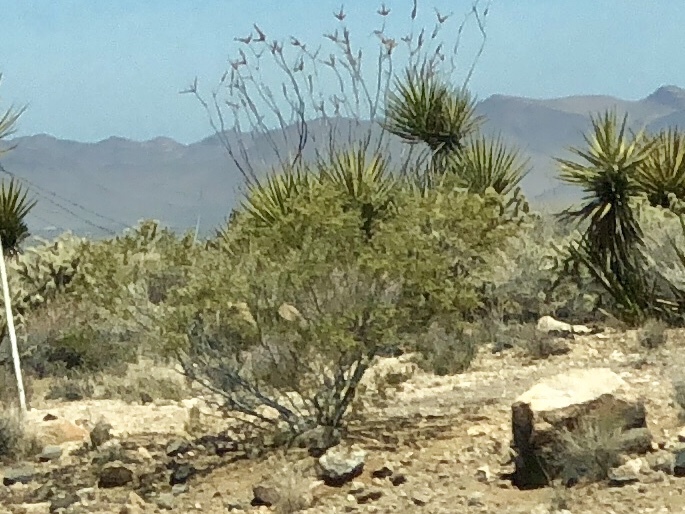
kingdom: Plantae
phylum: Tracheophyta
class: Magnoliopsida
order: Zygophyllales
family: Zygophyllaceae
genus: Larrea
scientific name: Larrea tridentata
